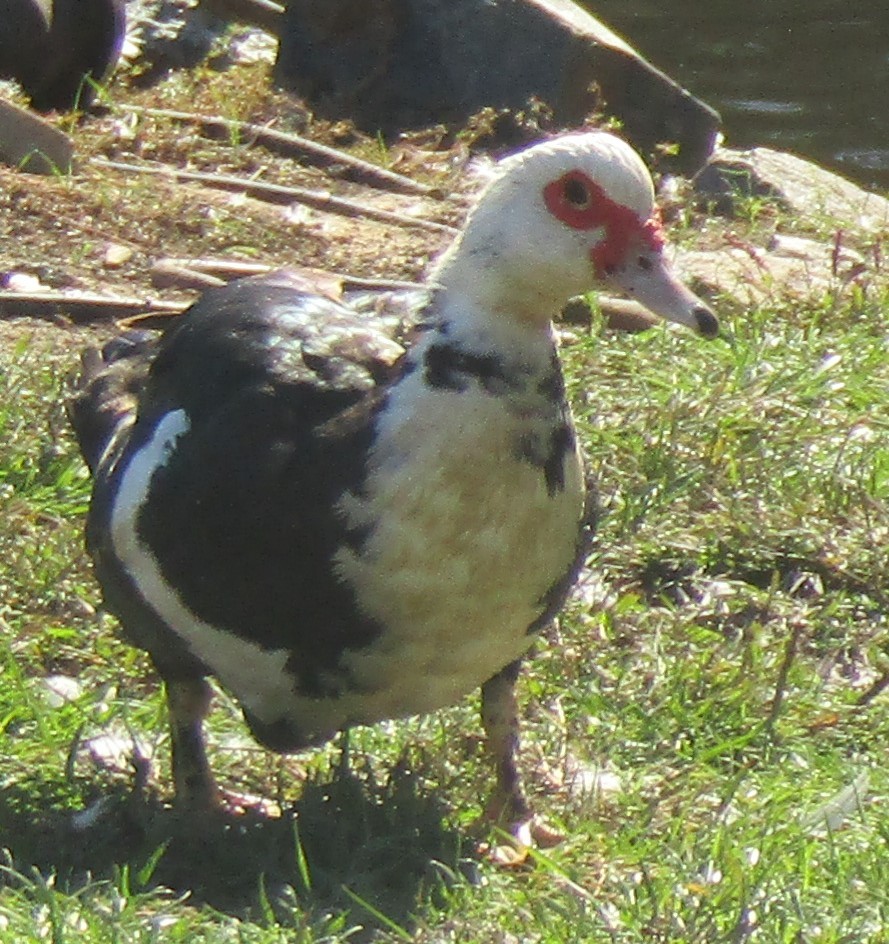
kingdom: Animalia
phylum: Chordata
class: Aves
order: Anseriformes
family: Anatidae
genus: Cairina
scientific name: Cairina moschata
